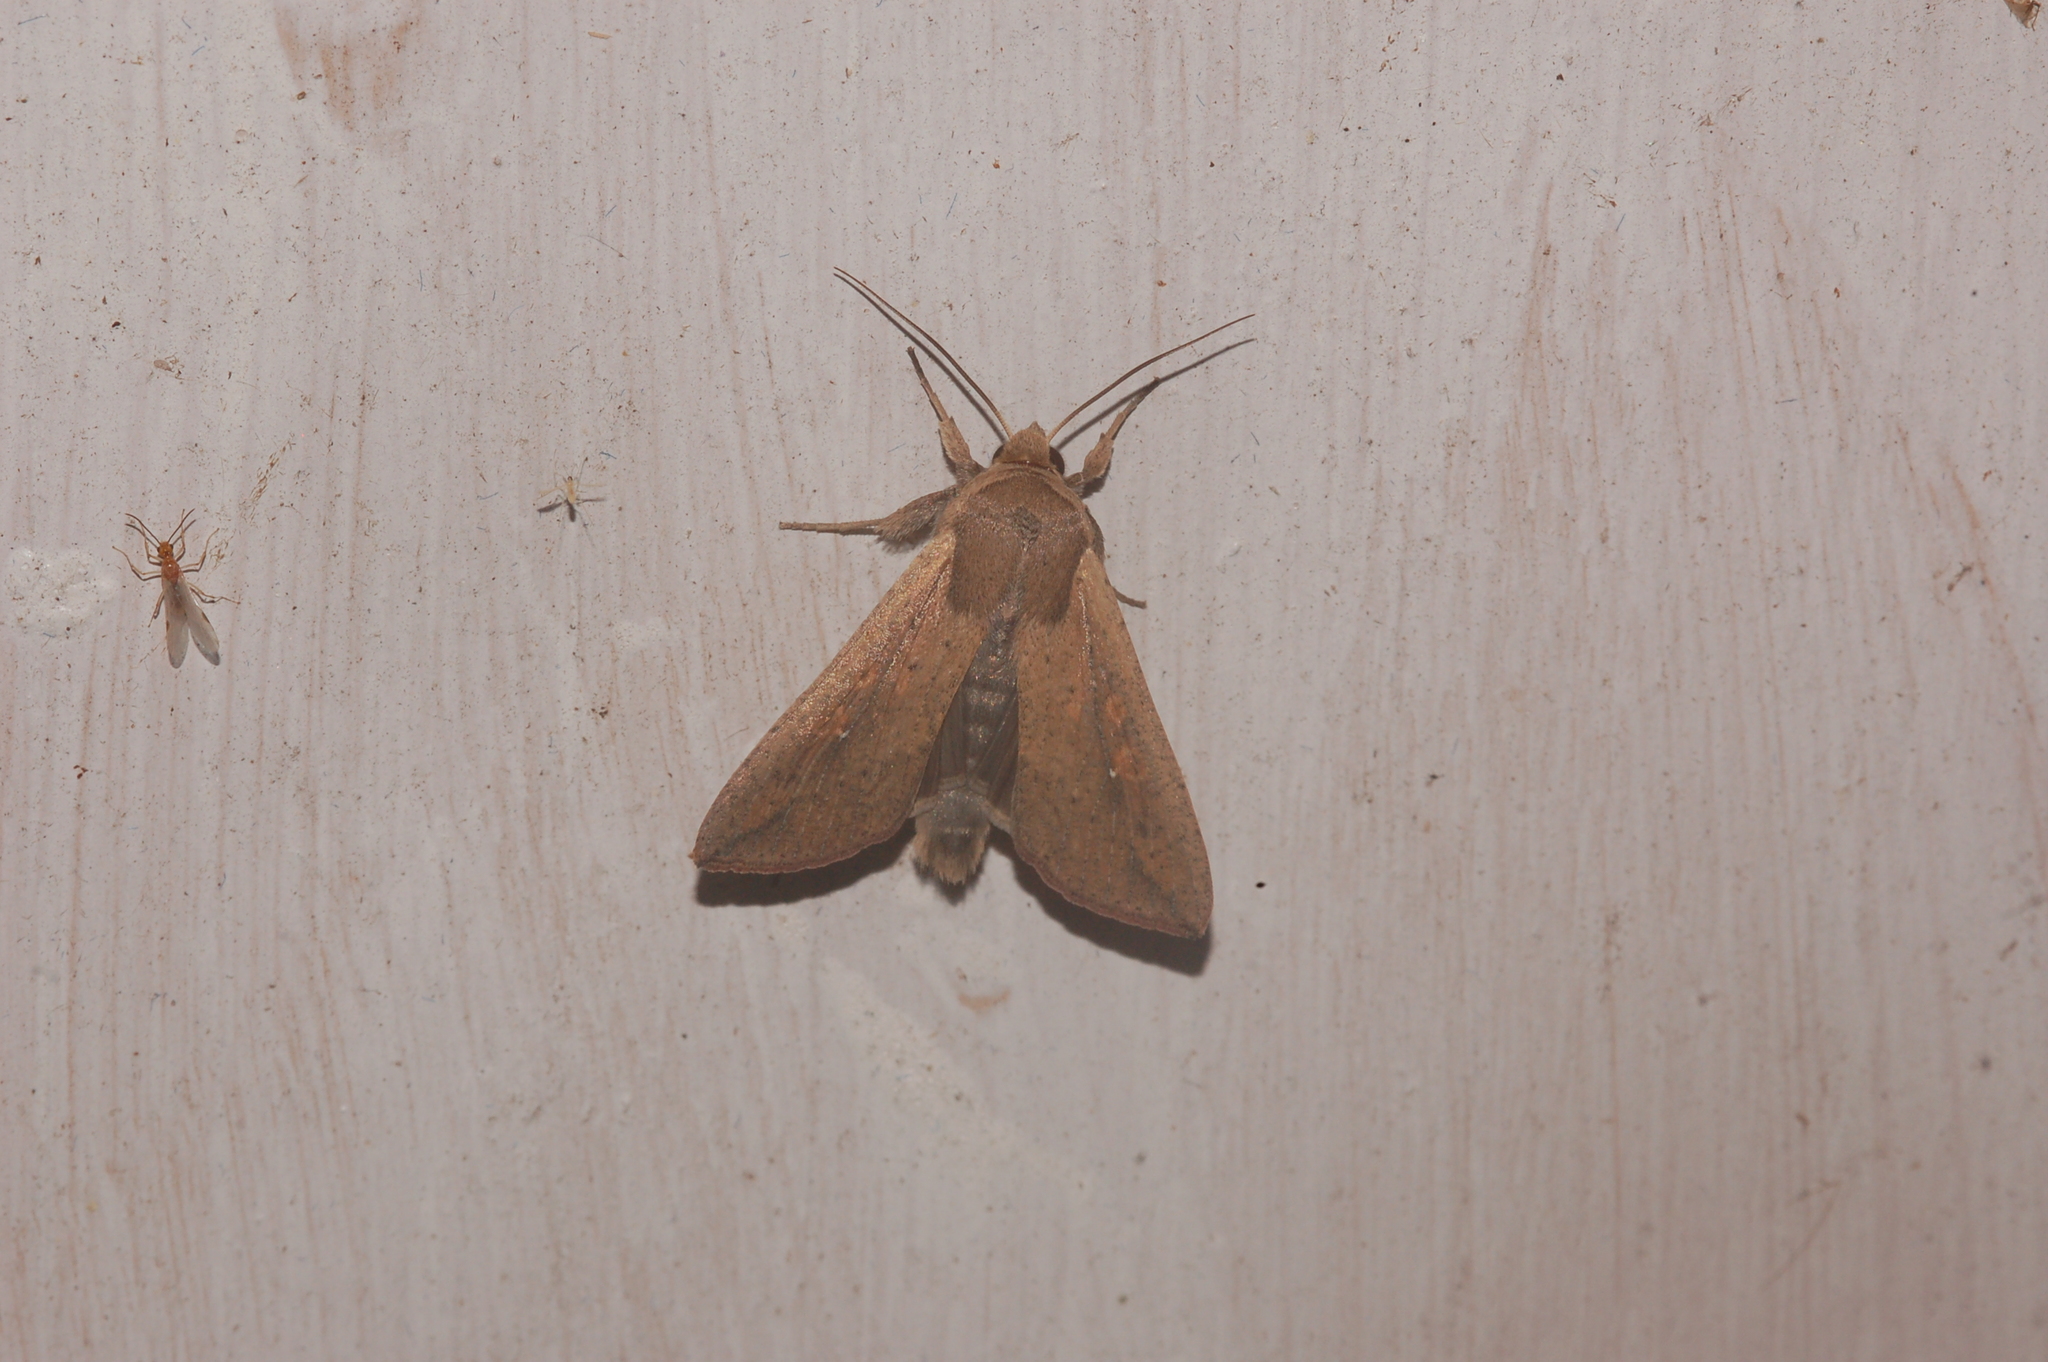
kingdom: Animalia
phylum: Arthropoda
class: Insecta
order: Lepidoptera
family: Noctuidae
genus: Mythimna
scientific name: Mythimna unipuncta
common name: White-speck
